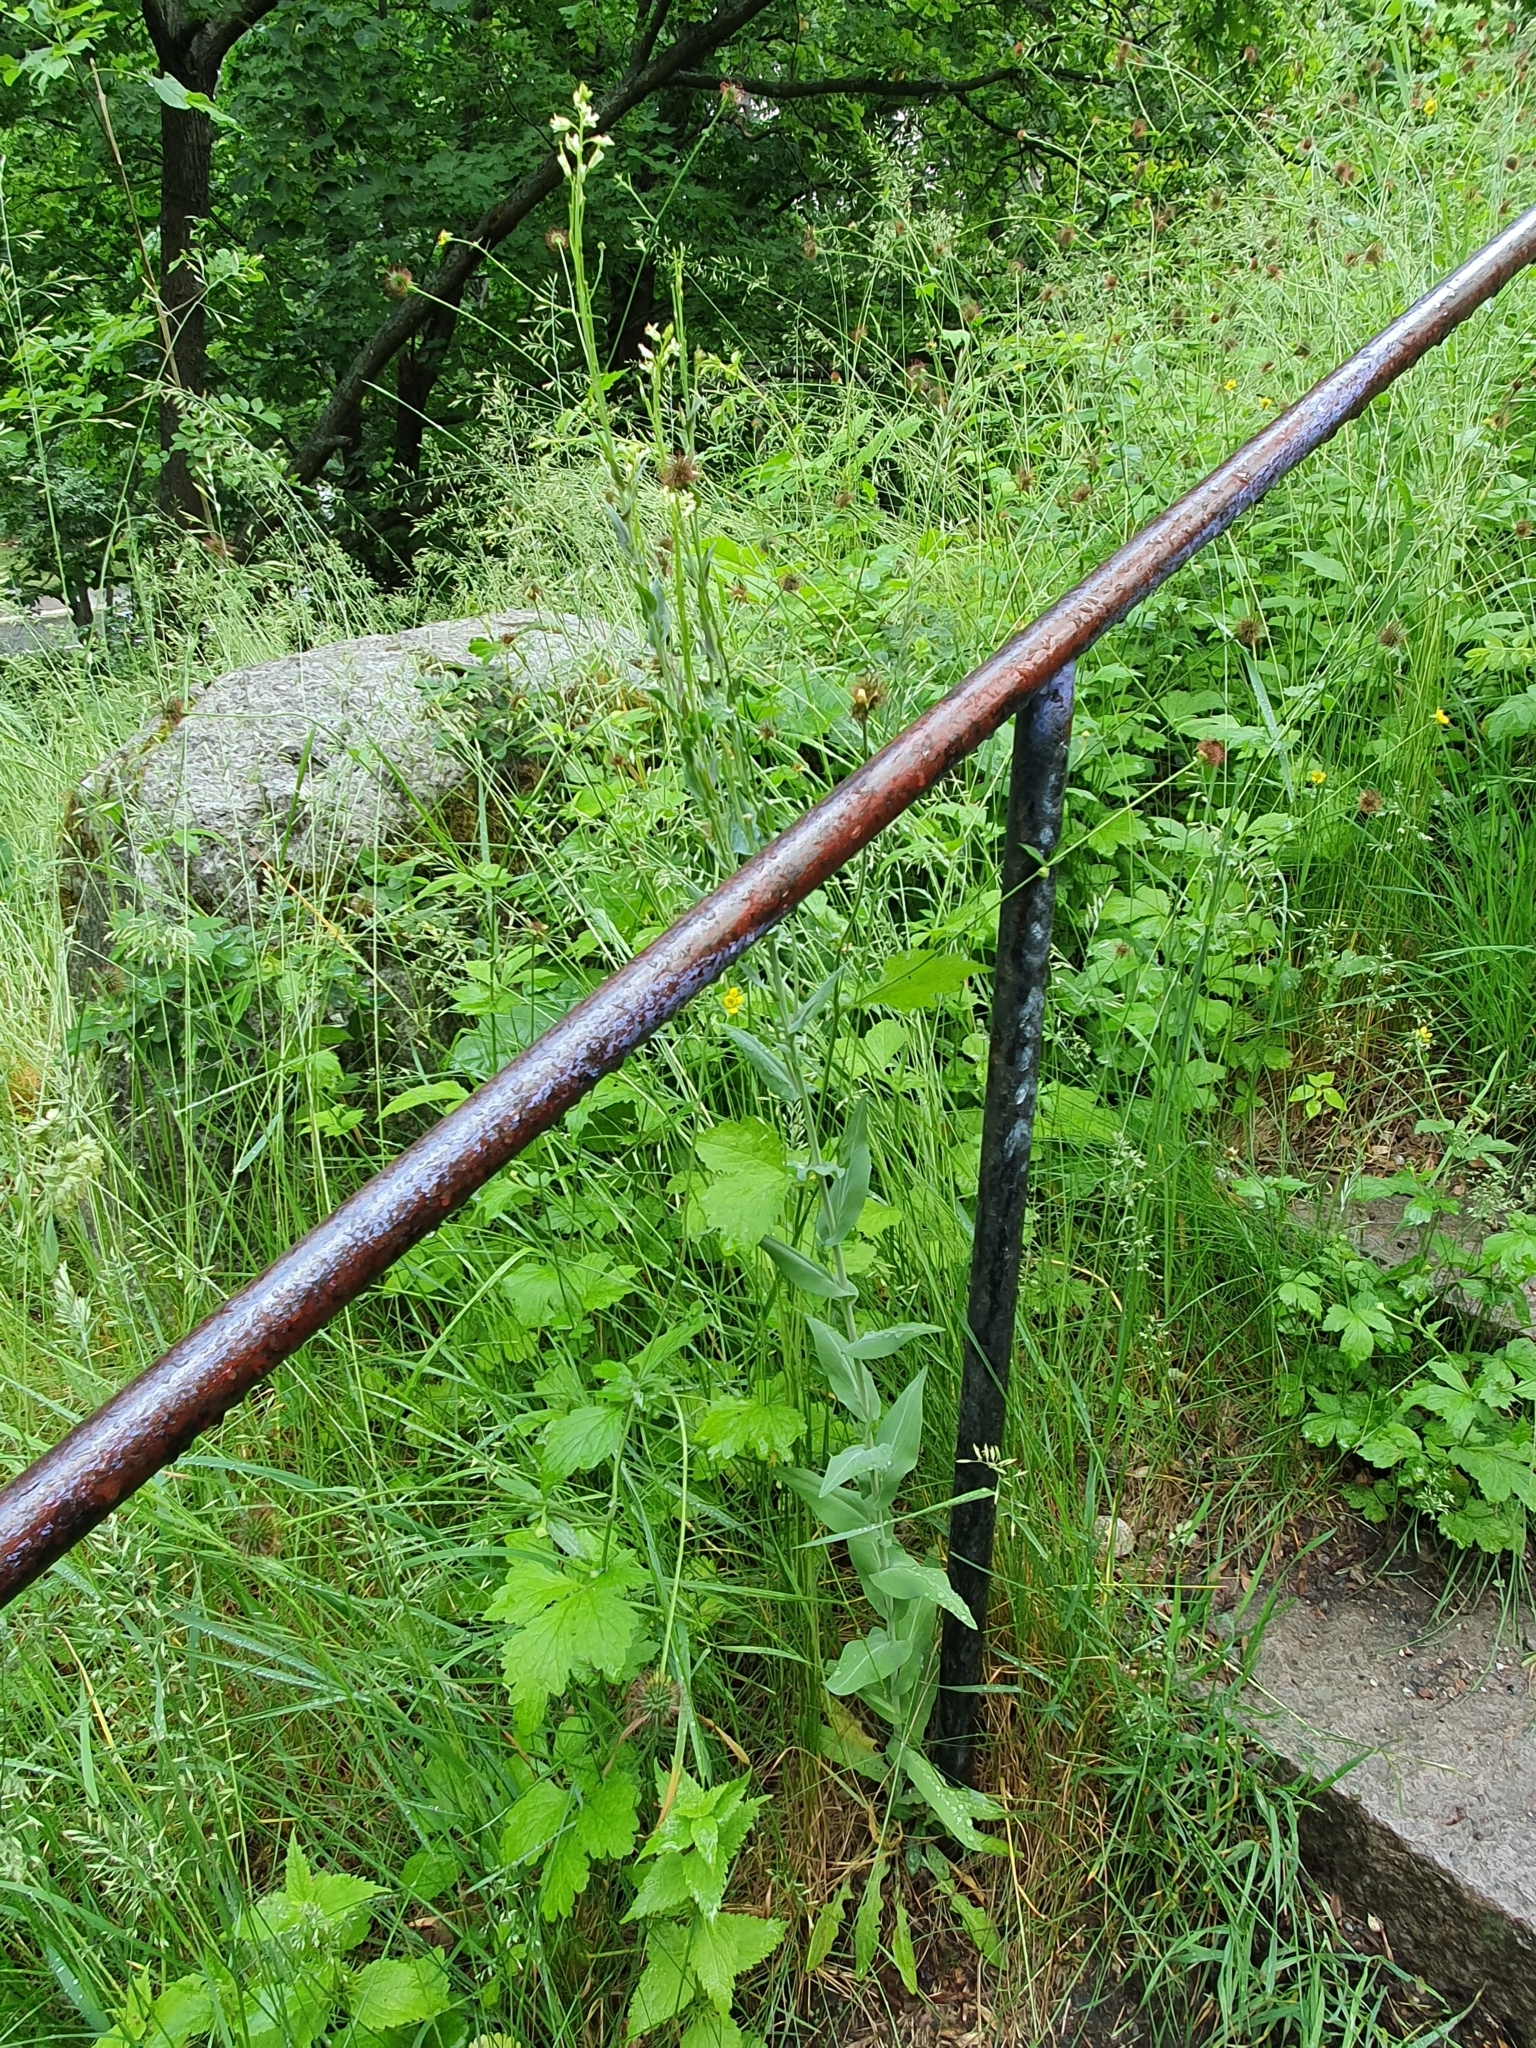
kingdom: Plantae
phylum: Tracheophyta
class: Magnoliopsida
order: Brassicales
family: Brassicaceae
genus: Turritis
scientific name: Turritis glabra
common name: Tower rockcress
